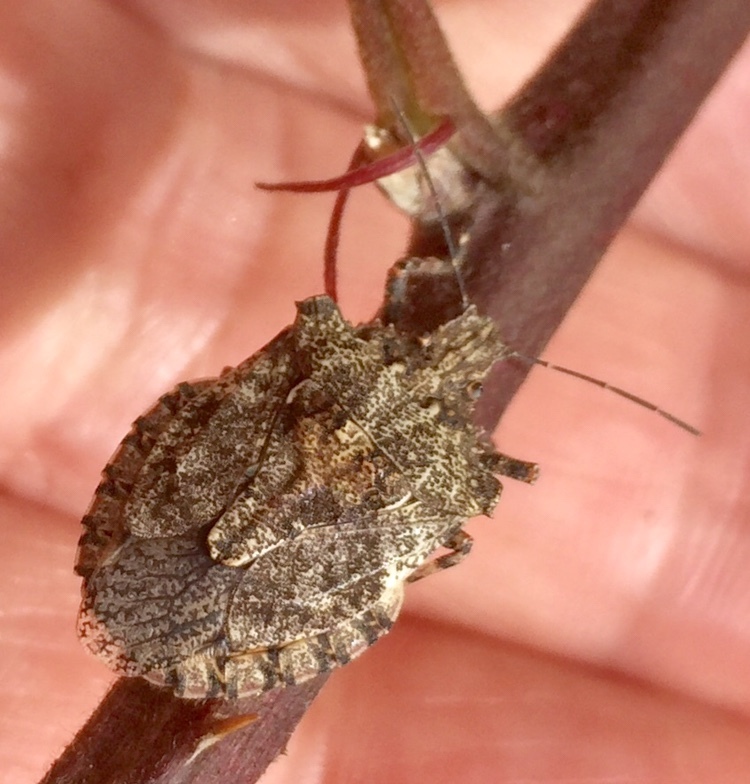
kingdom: Animalia
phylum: Arthropoda
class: Insecta
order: Hemiptera
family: Pentatomidae
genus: Brochymena
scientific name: Brochymena arborea
